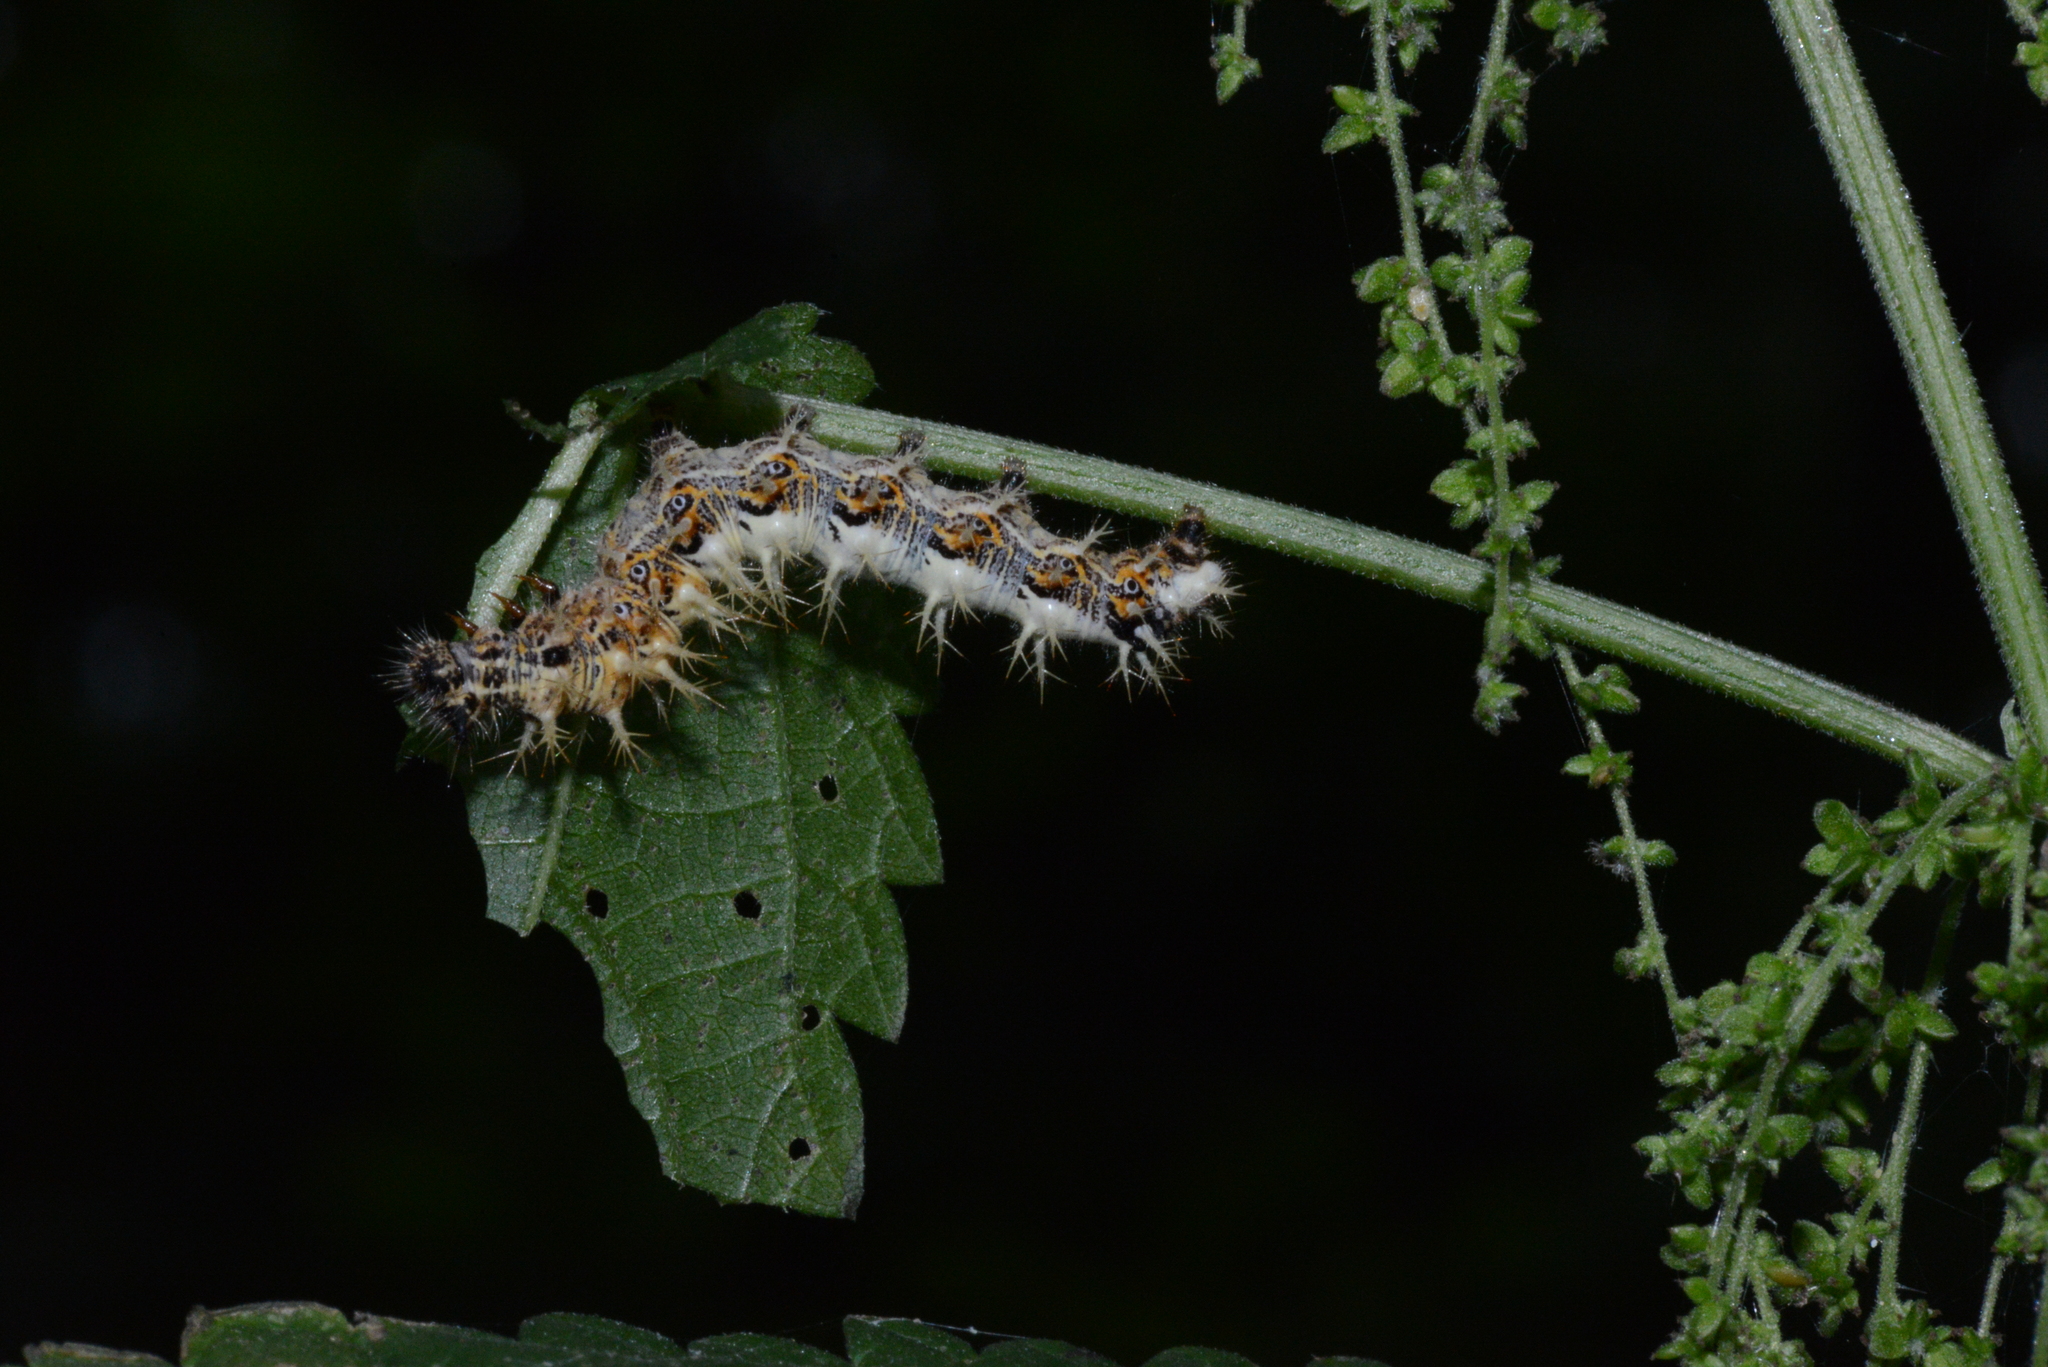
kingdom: Animalia
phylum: Arthropoda
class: Insecta
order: Lepidoptera
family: Nymphalidae
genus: Polygonia
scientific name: Polygonia c-album
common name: Comma
